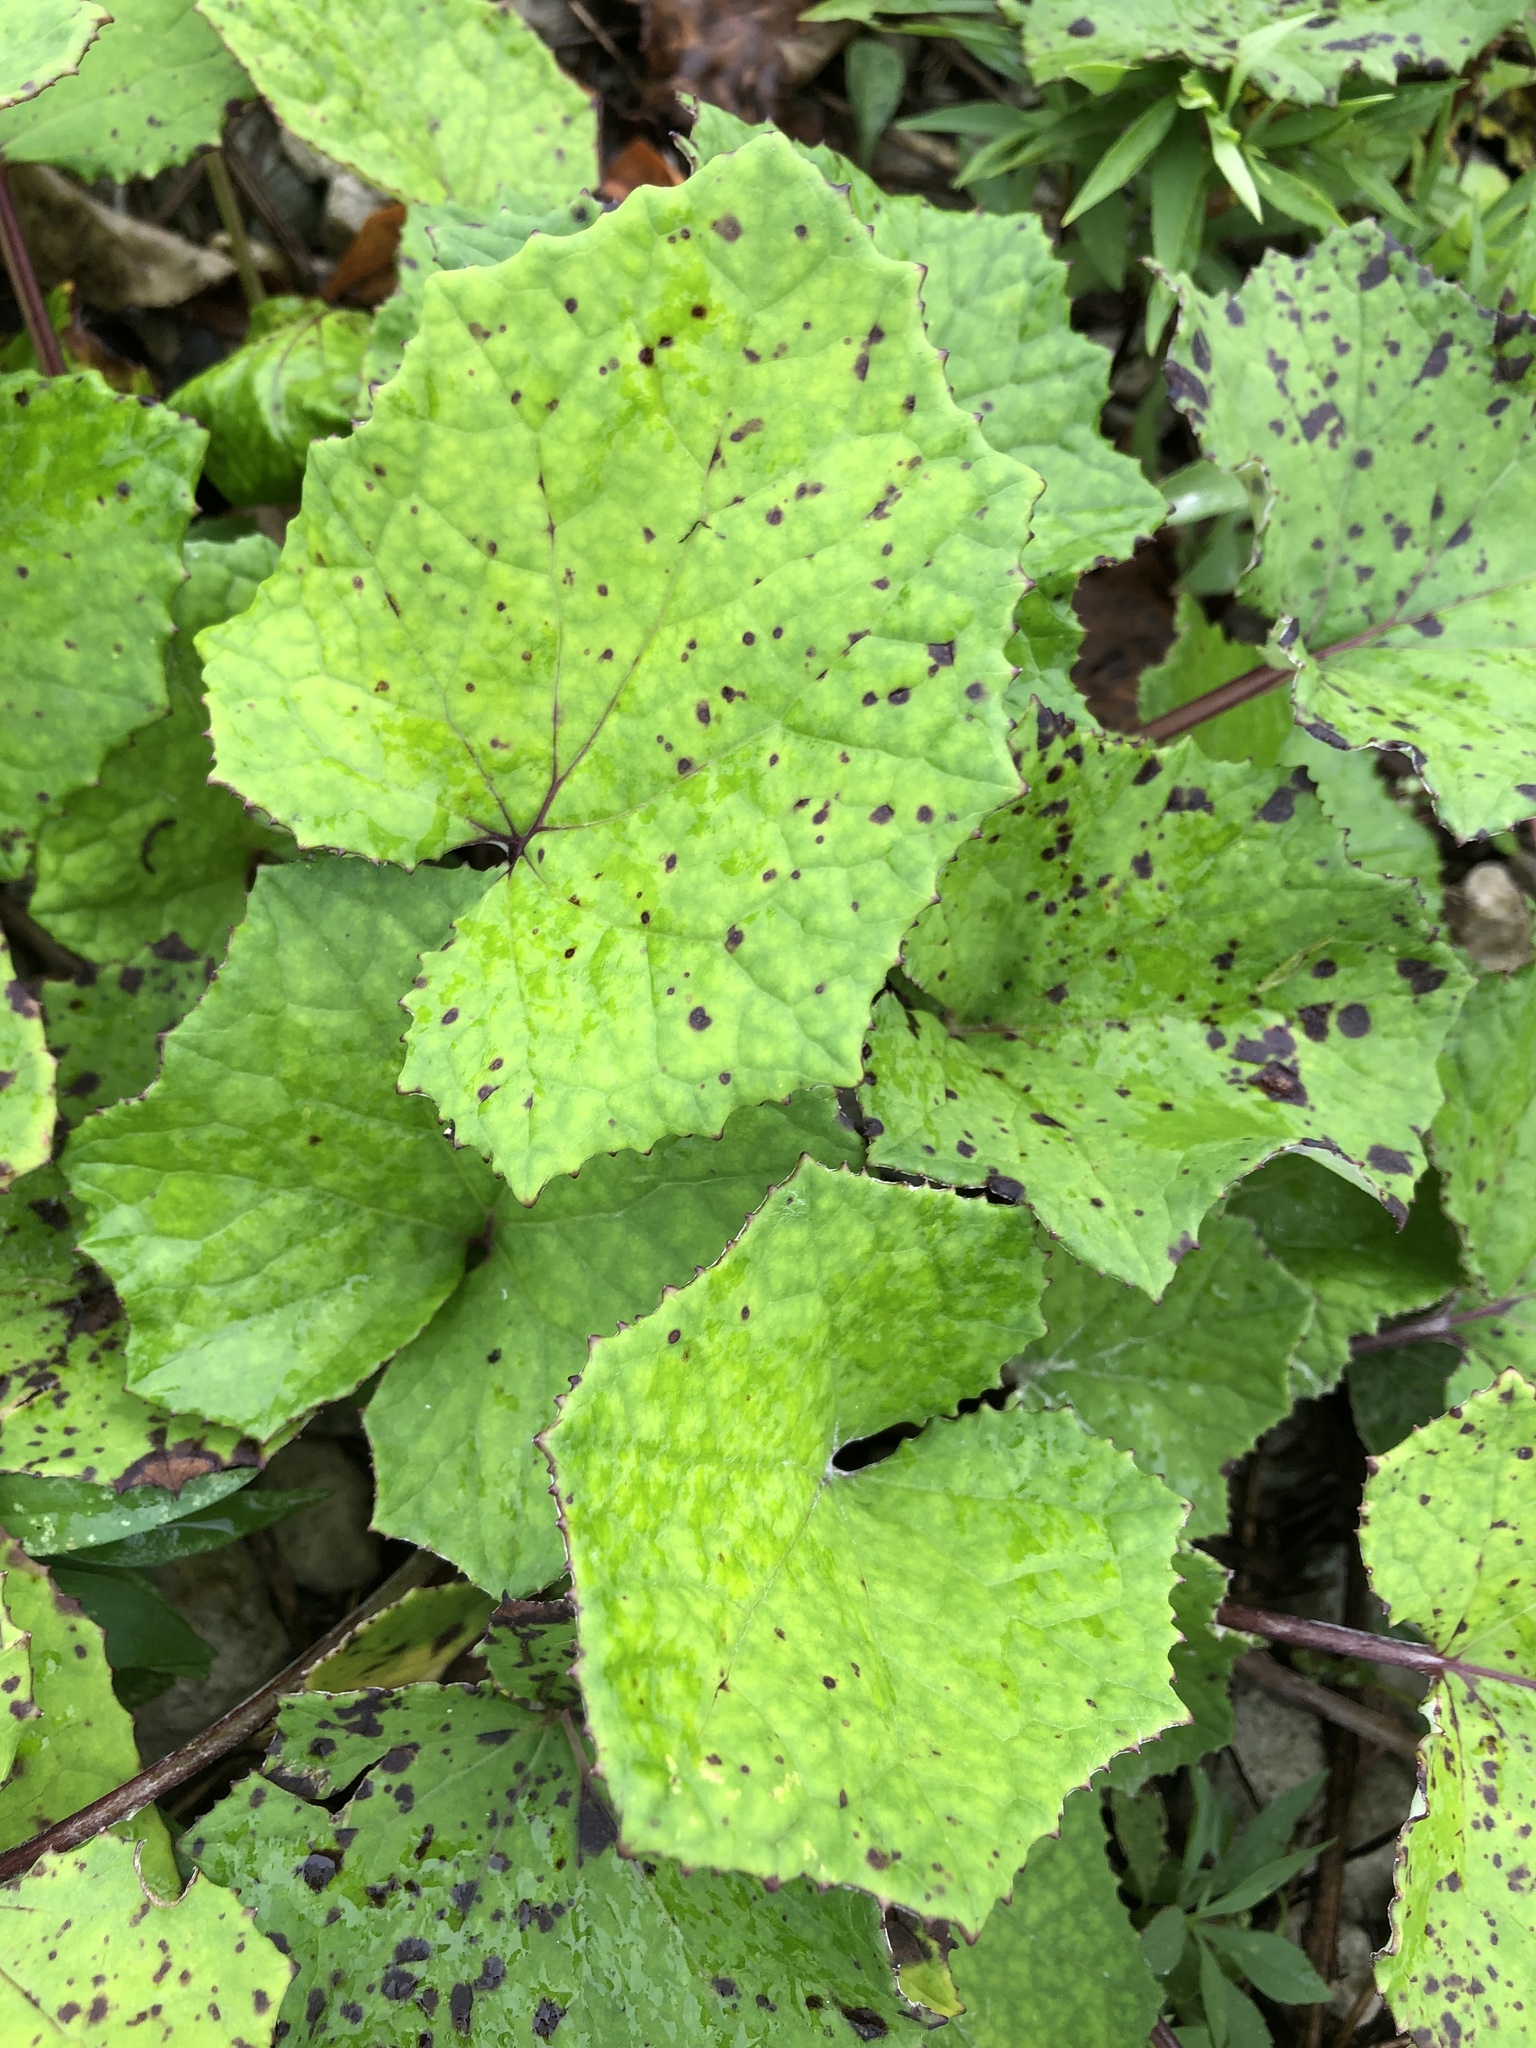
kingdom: Plantae
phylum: Tracheophyta
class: Magnoliopsida
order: Asterales
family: Asteraceae
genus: Tussilago
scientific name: Tussilago farfara
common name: Coltsfoot
